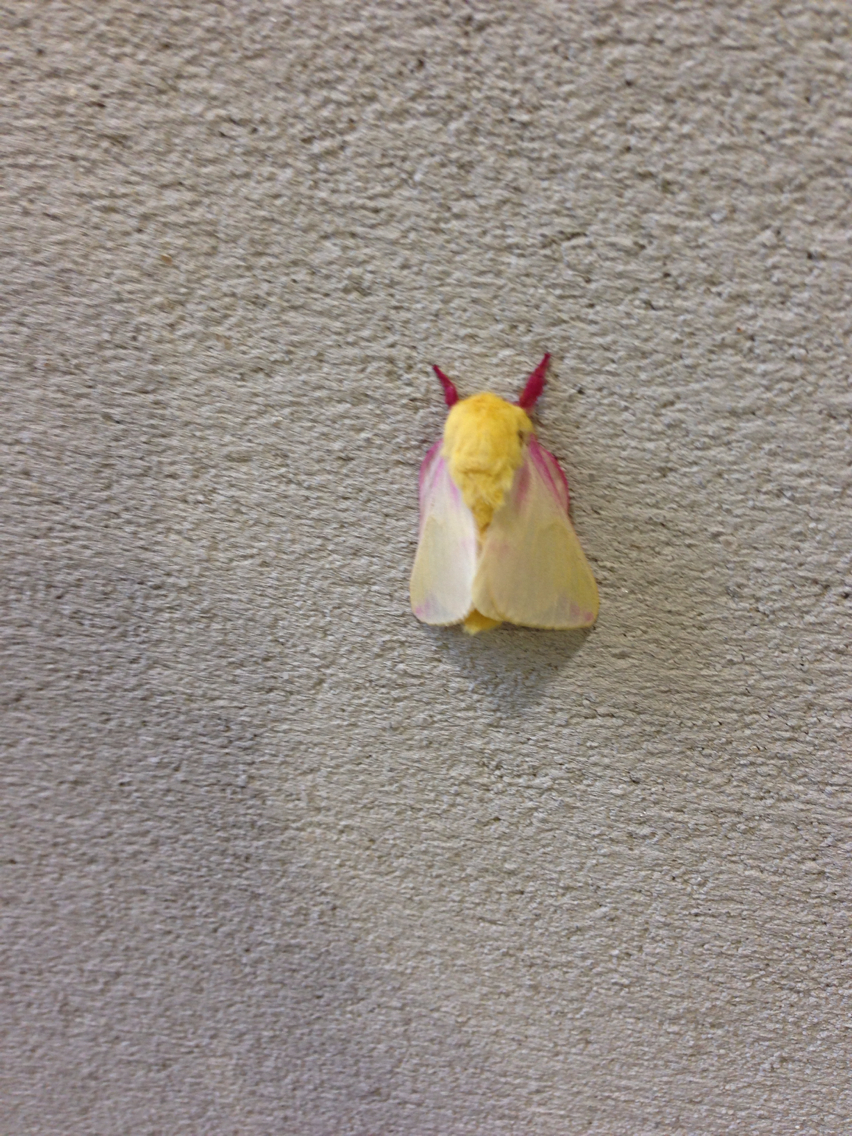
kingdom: Animalia
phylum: Arthropoda
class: Insecta
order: Lepidoptera
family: Saturniidae
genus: Dryocampa
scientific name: Dryocampa rubicunda
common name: Rosy maple moth
